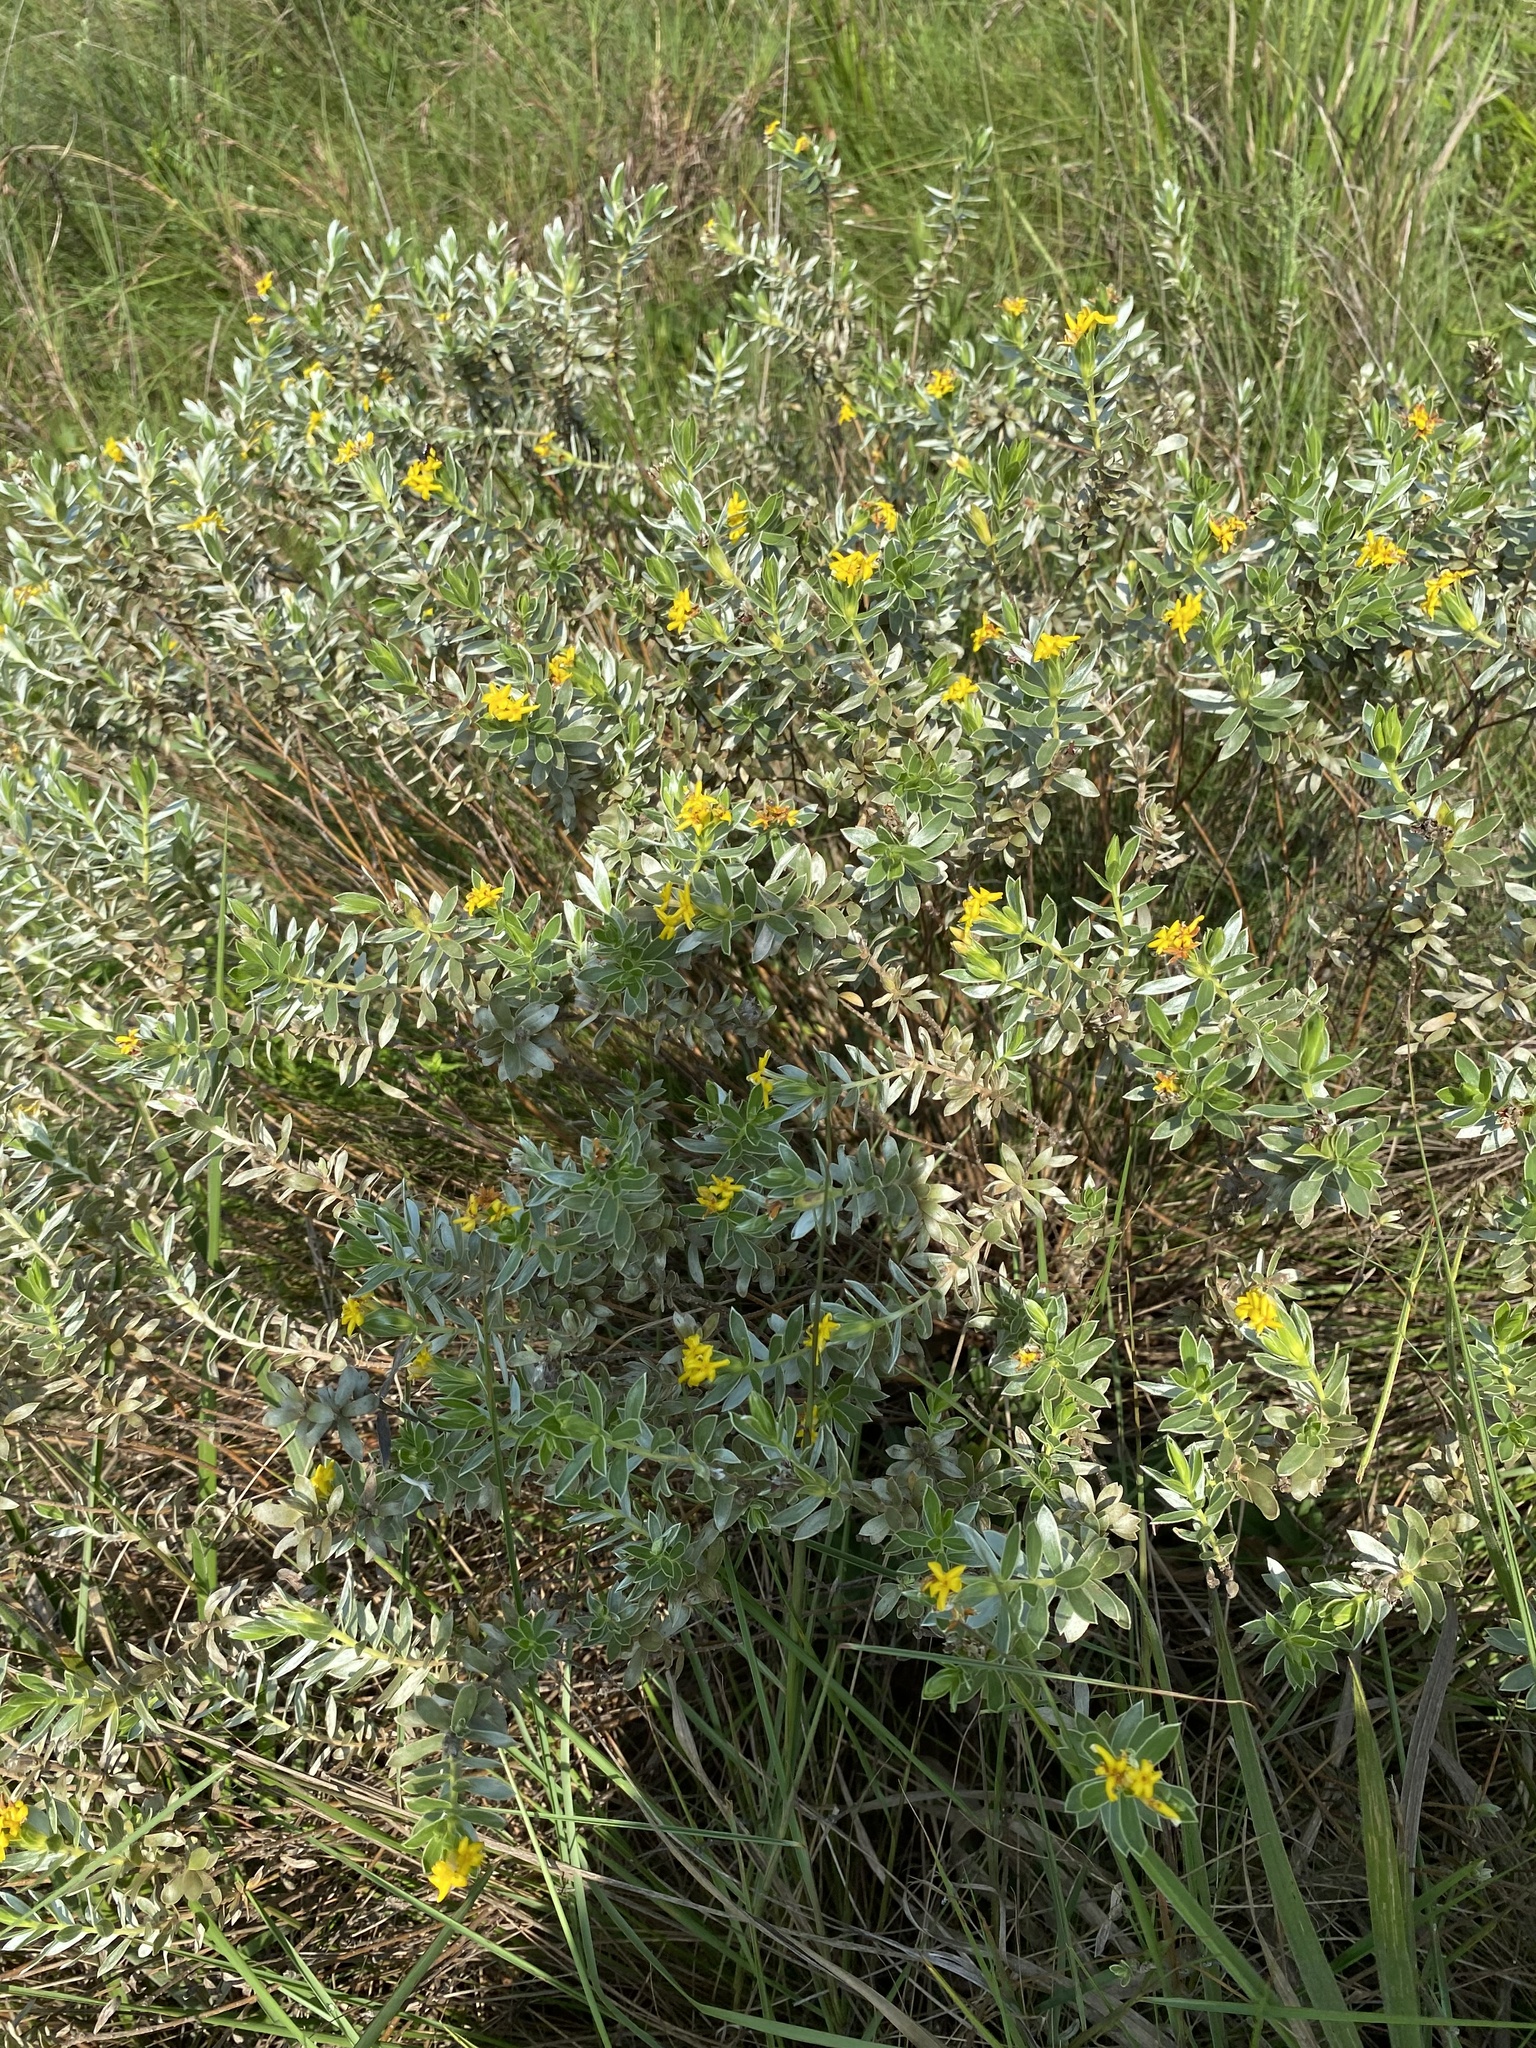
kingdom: Plantae
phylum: Tracheophyta
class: Magnoliopsida
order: Malvales
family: Thymelaeaceae
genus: Gnidia
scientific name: Gnidia splendens
